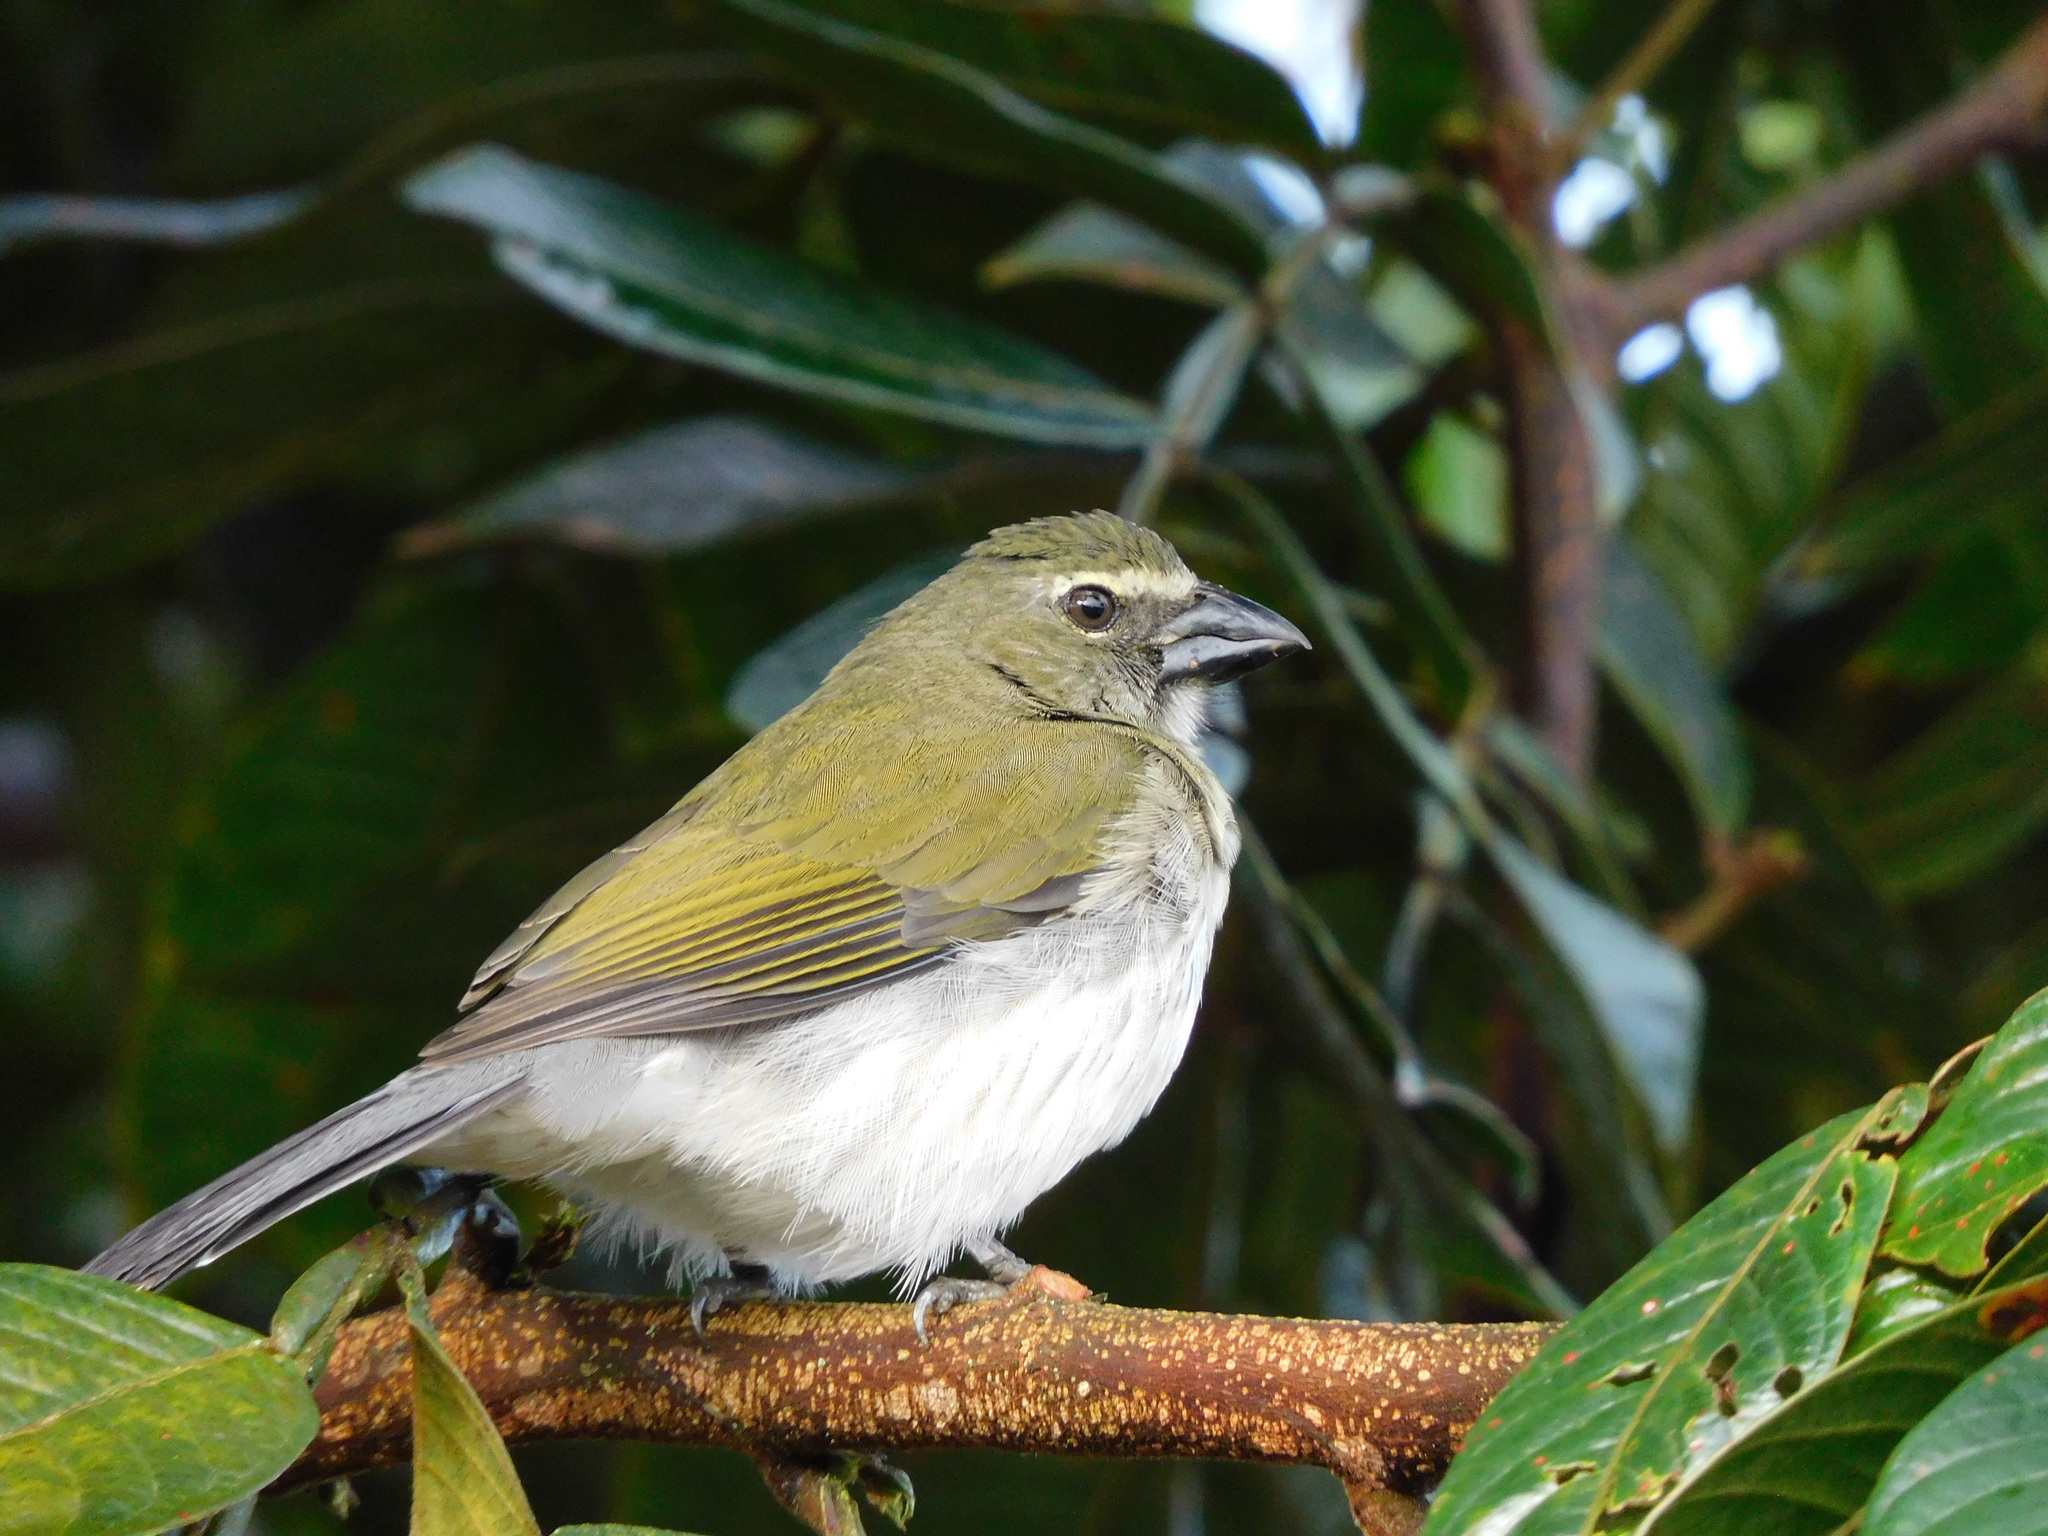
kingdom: Animalia
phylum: Chordata
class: Aves
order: Passeriformes
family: Thraupidae
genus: Saltator
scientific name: Saltator striatipectus
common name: Streaked saltator
